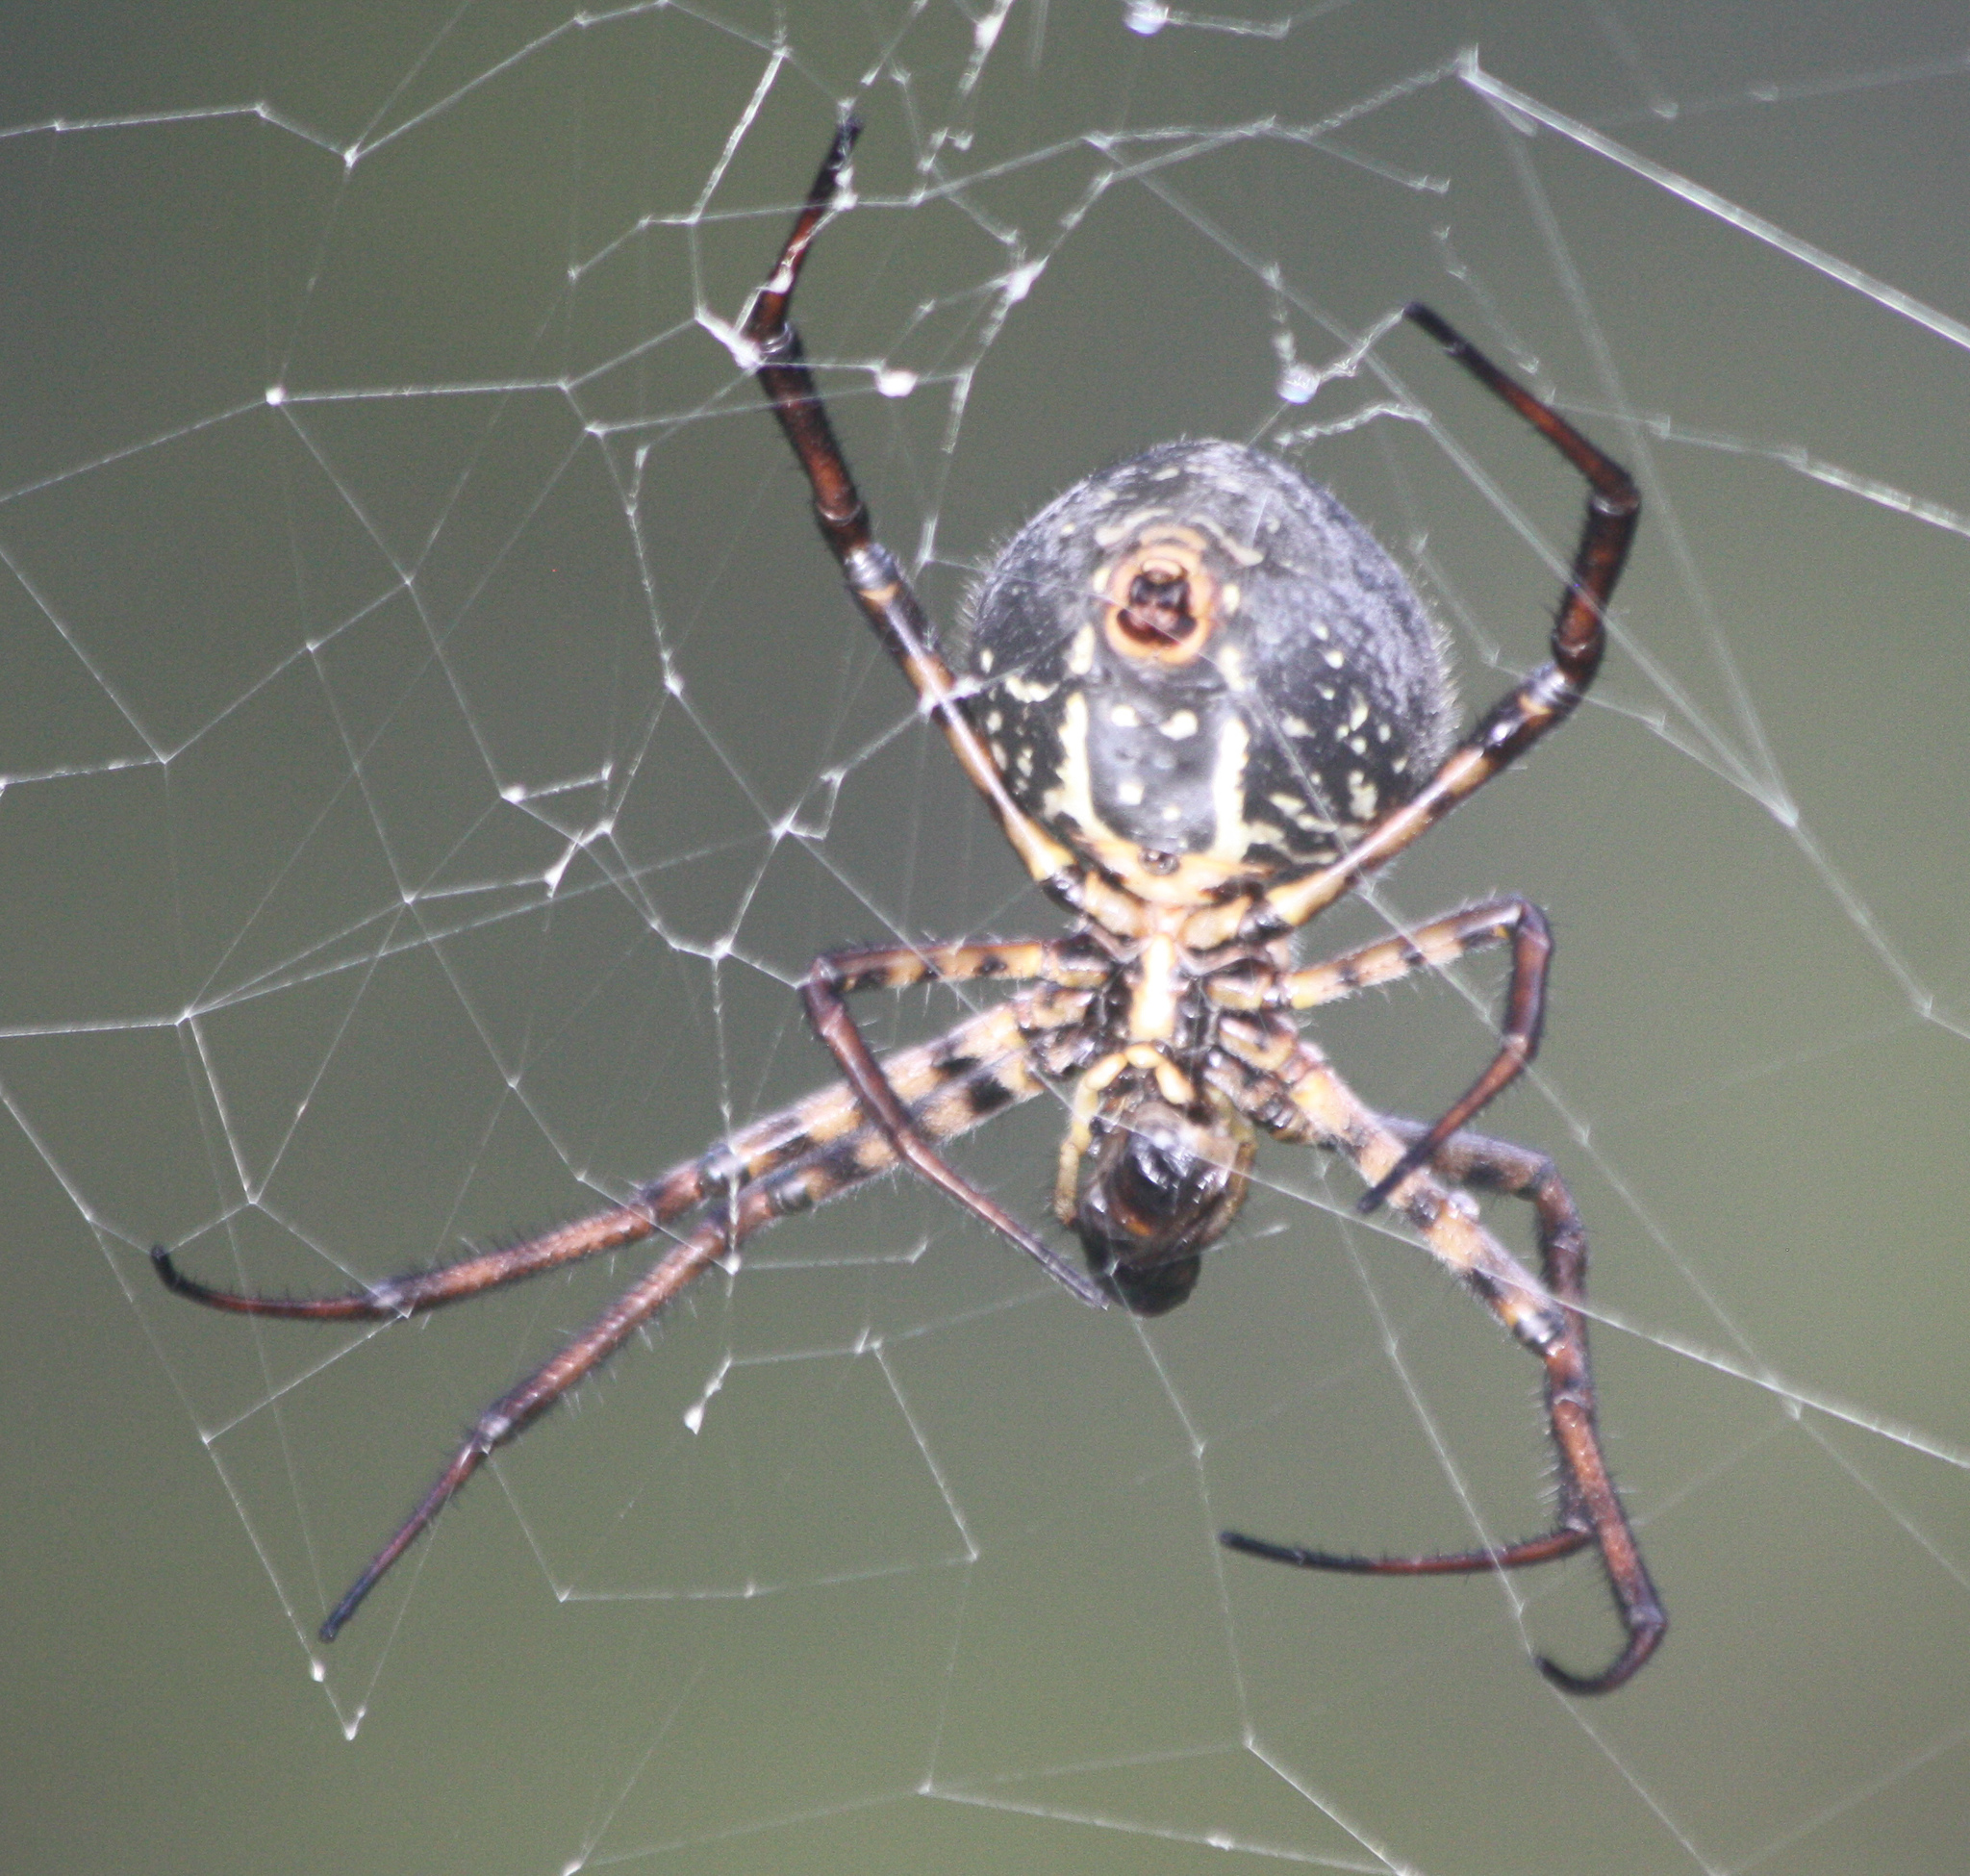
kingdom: Animalia
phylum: Arthropoda
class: Arachnida
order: Araneae
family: Araneidae
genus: Argiope
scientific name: Argiope trifasciata
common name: Banded garden spider
